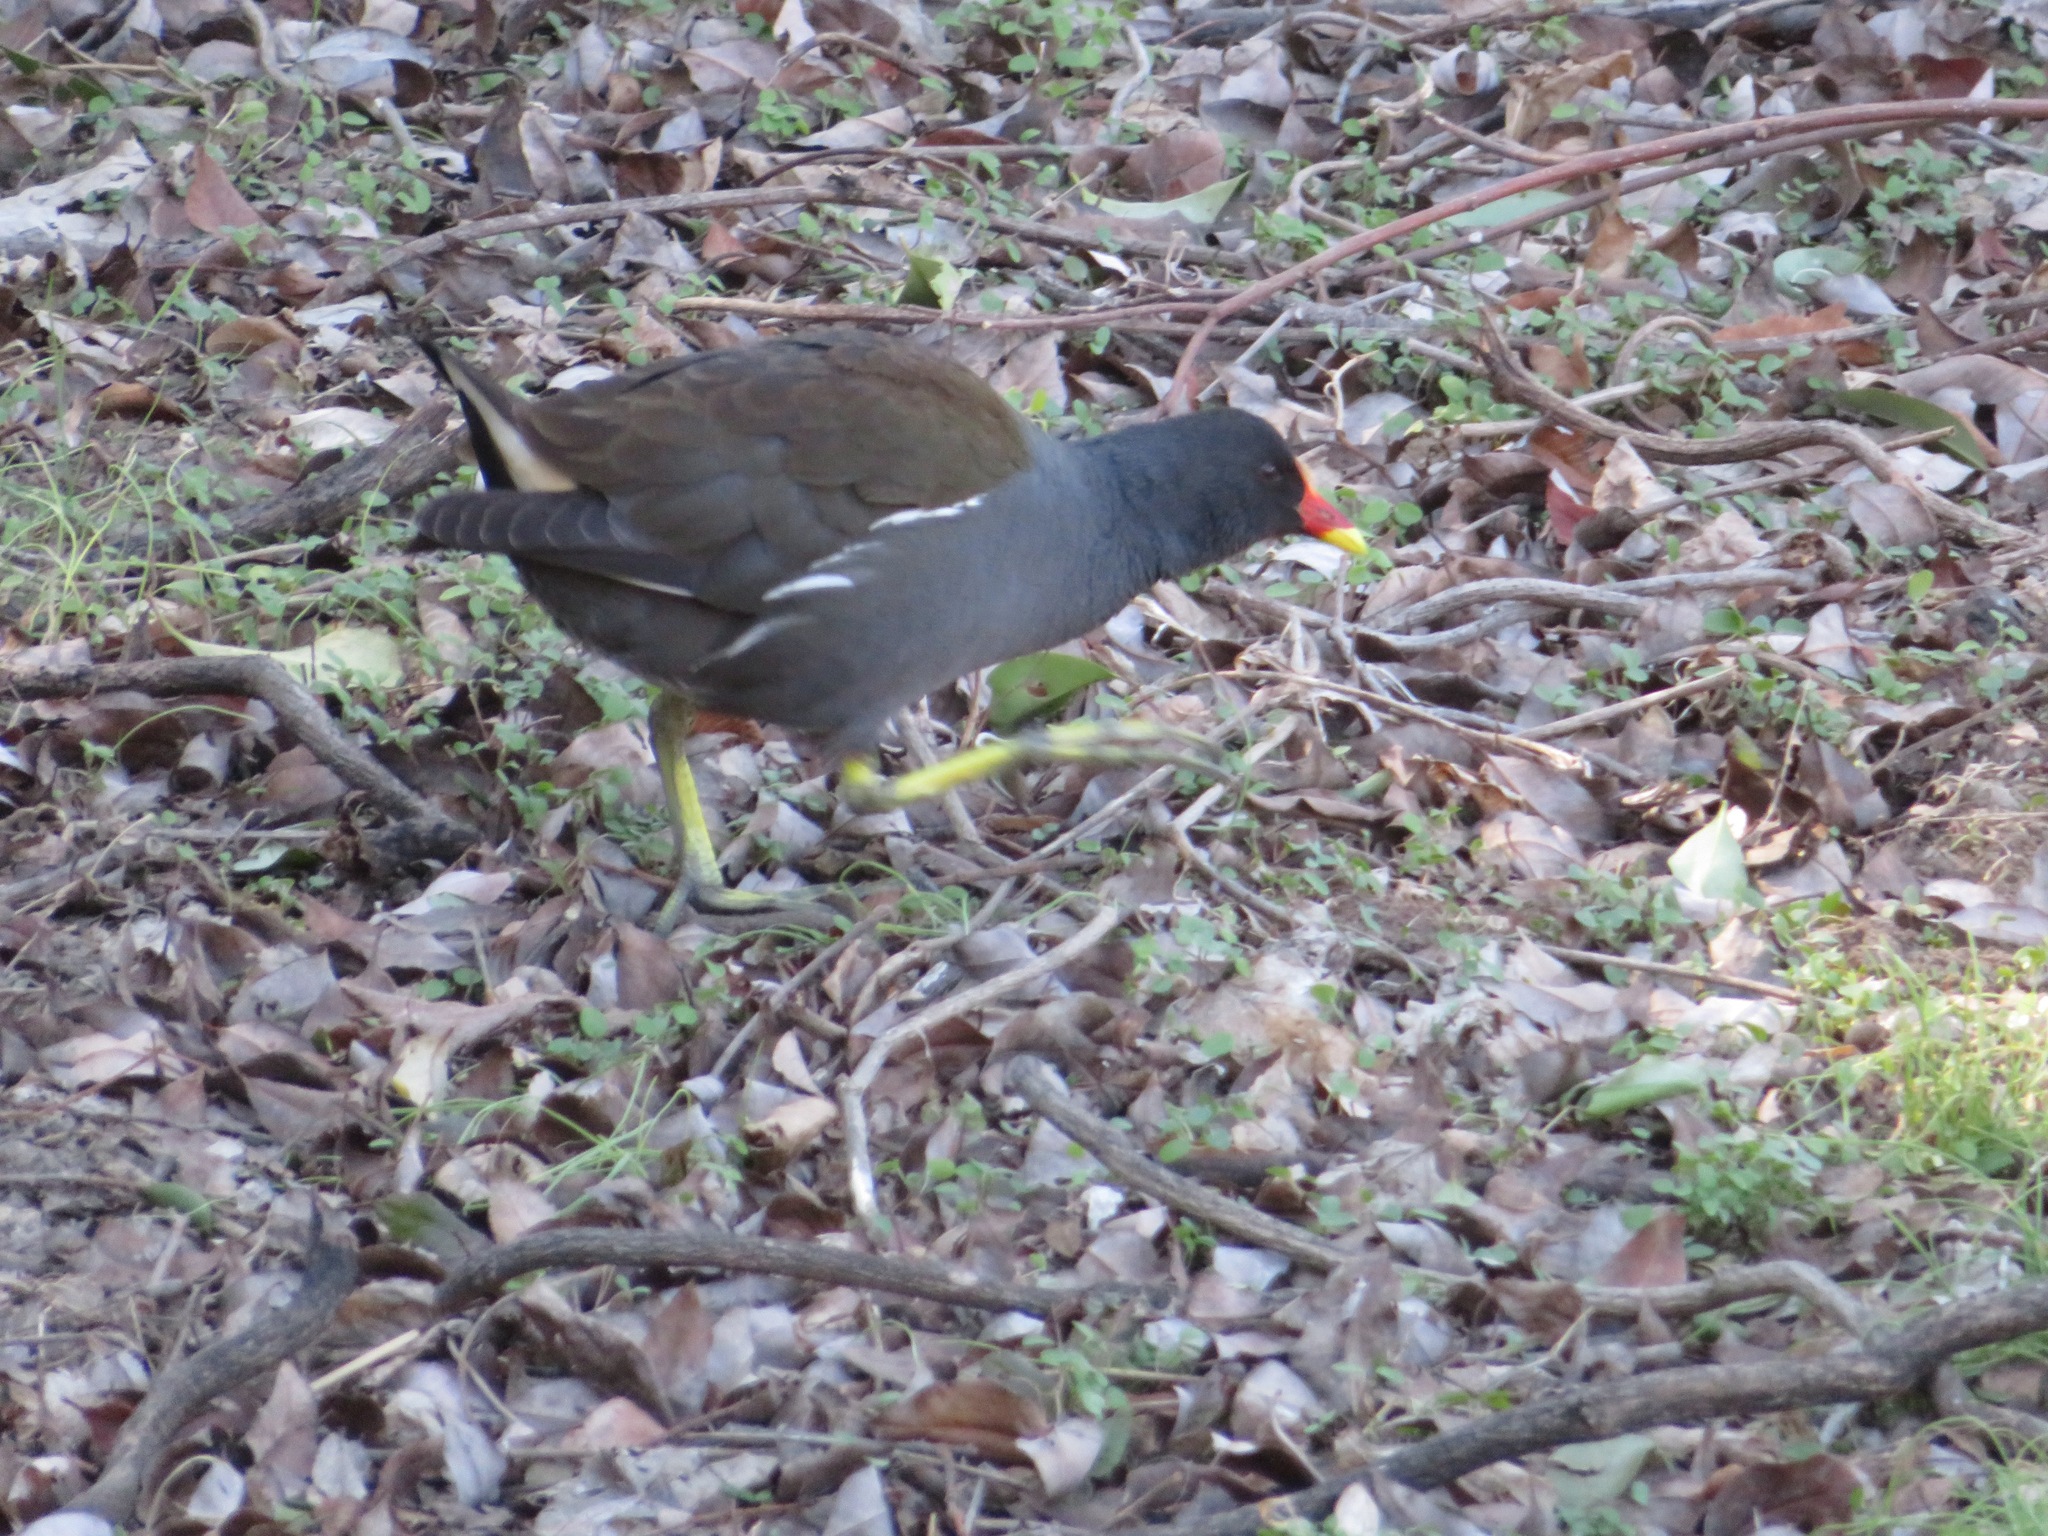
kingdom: Animalia
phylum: Chordata
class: Aves
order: Gruiformes
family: Rallidae
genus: Gallinula
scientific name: Gallinula chloropus
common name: Common moorhen
